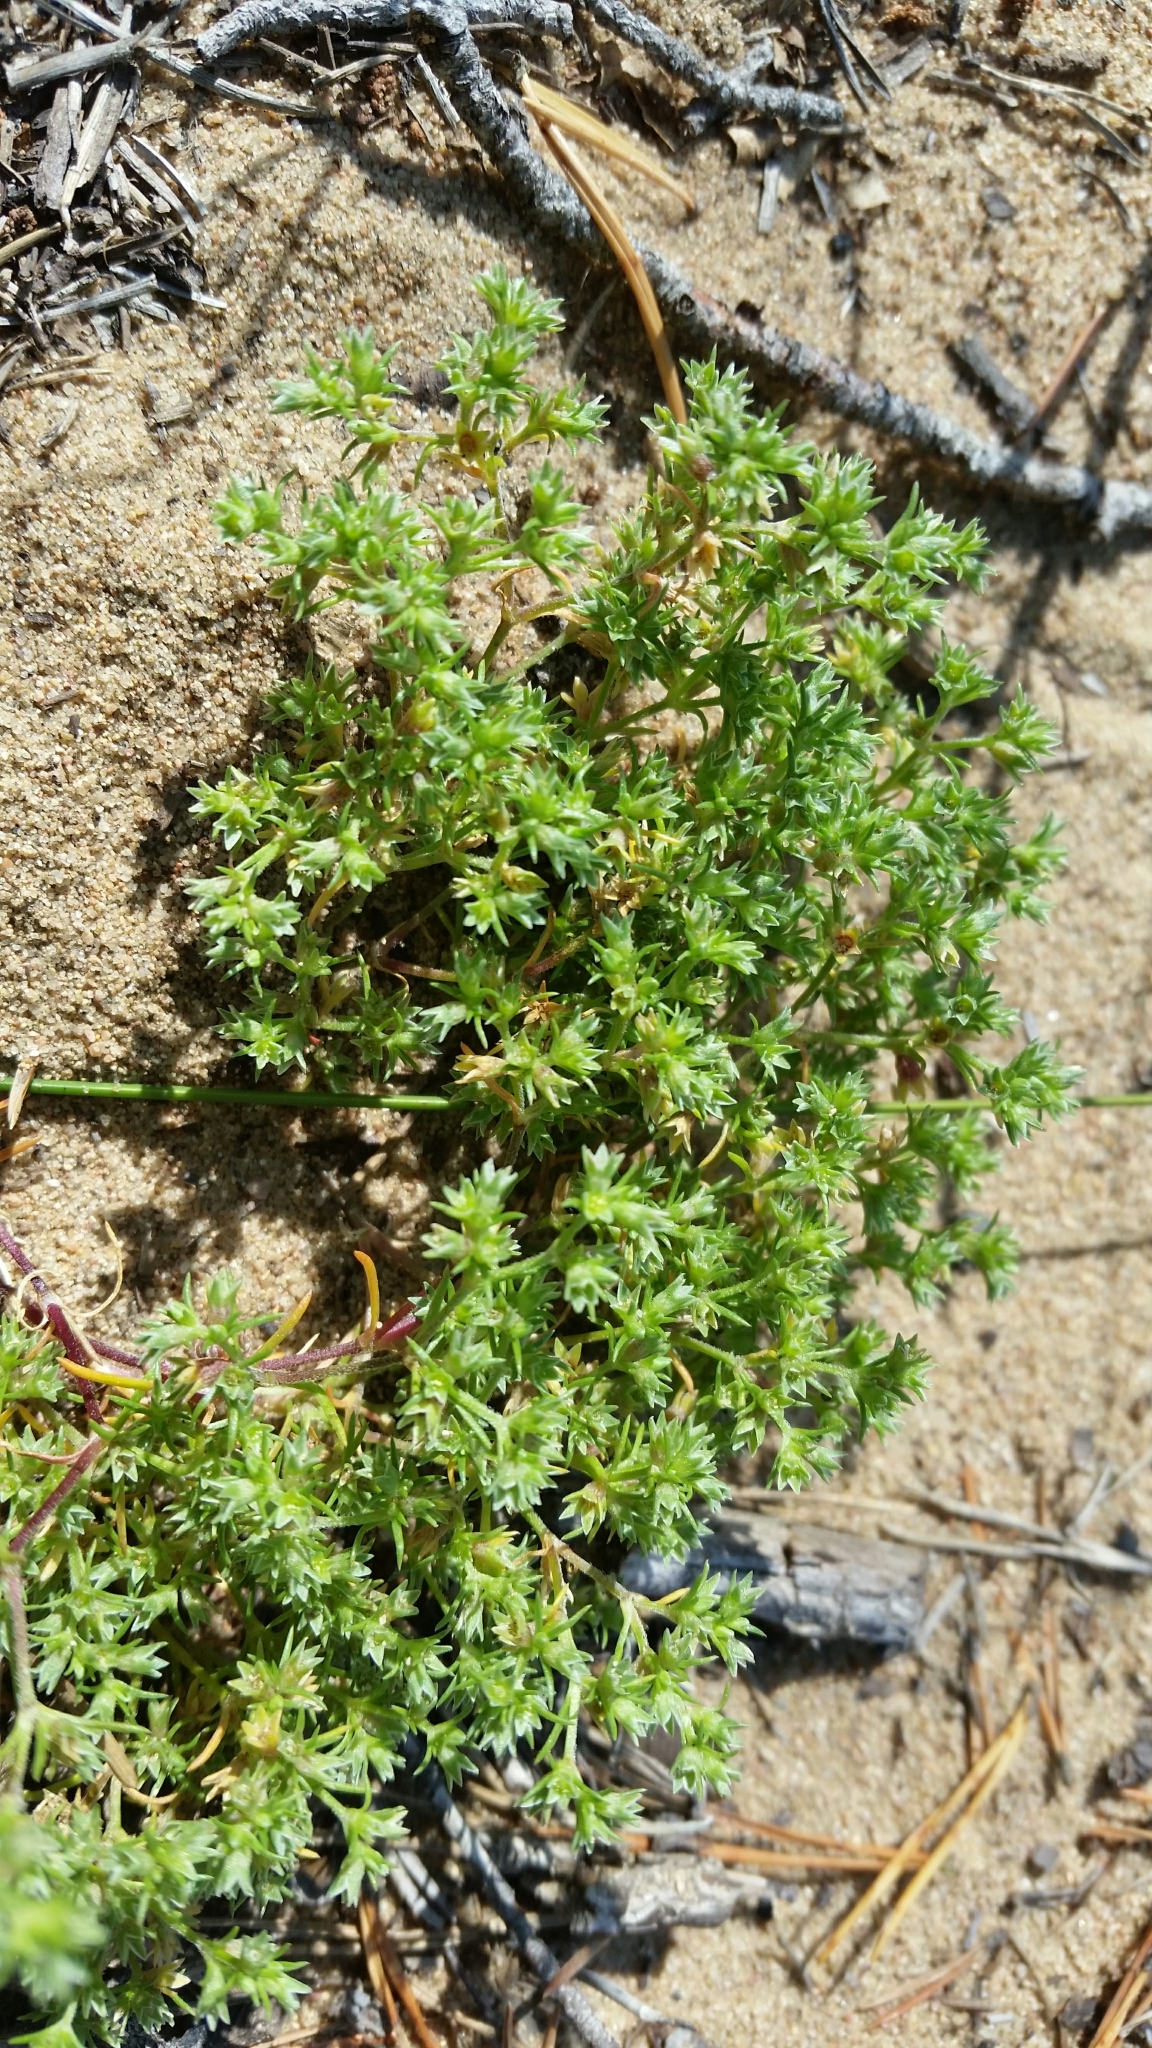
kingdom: Plantae
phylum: Tracheophyta
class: Magnoliopsida
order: Caryophyllales
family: Caryophyllaceae
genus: Scleranthus
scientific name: Scleranthus annuus
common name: Annual knawel
